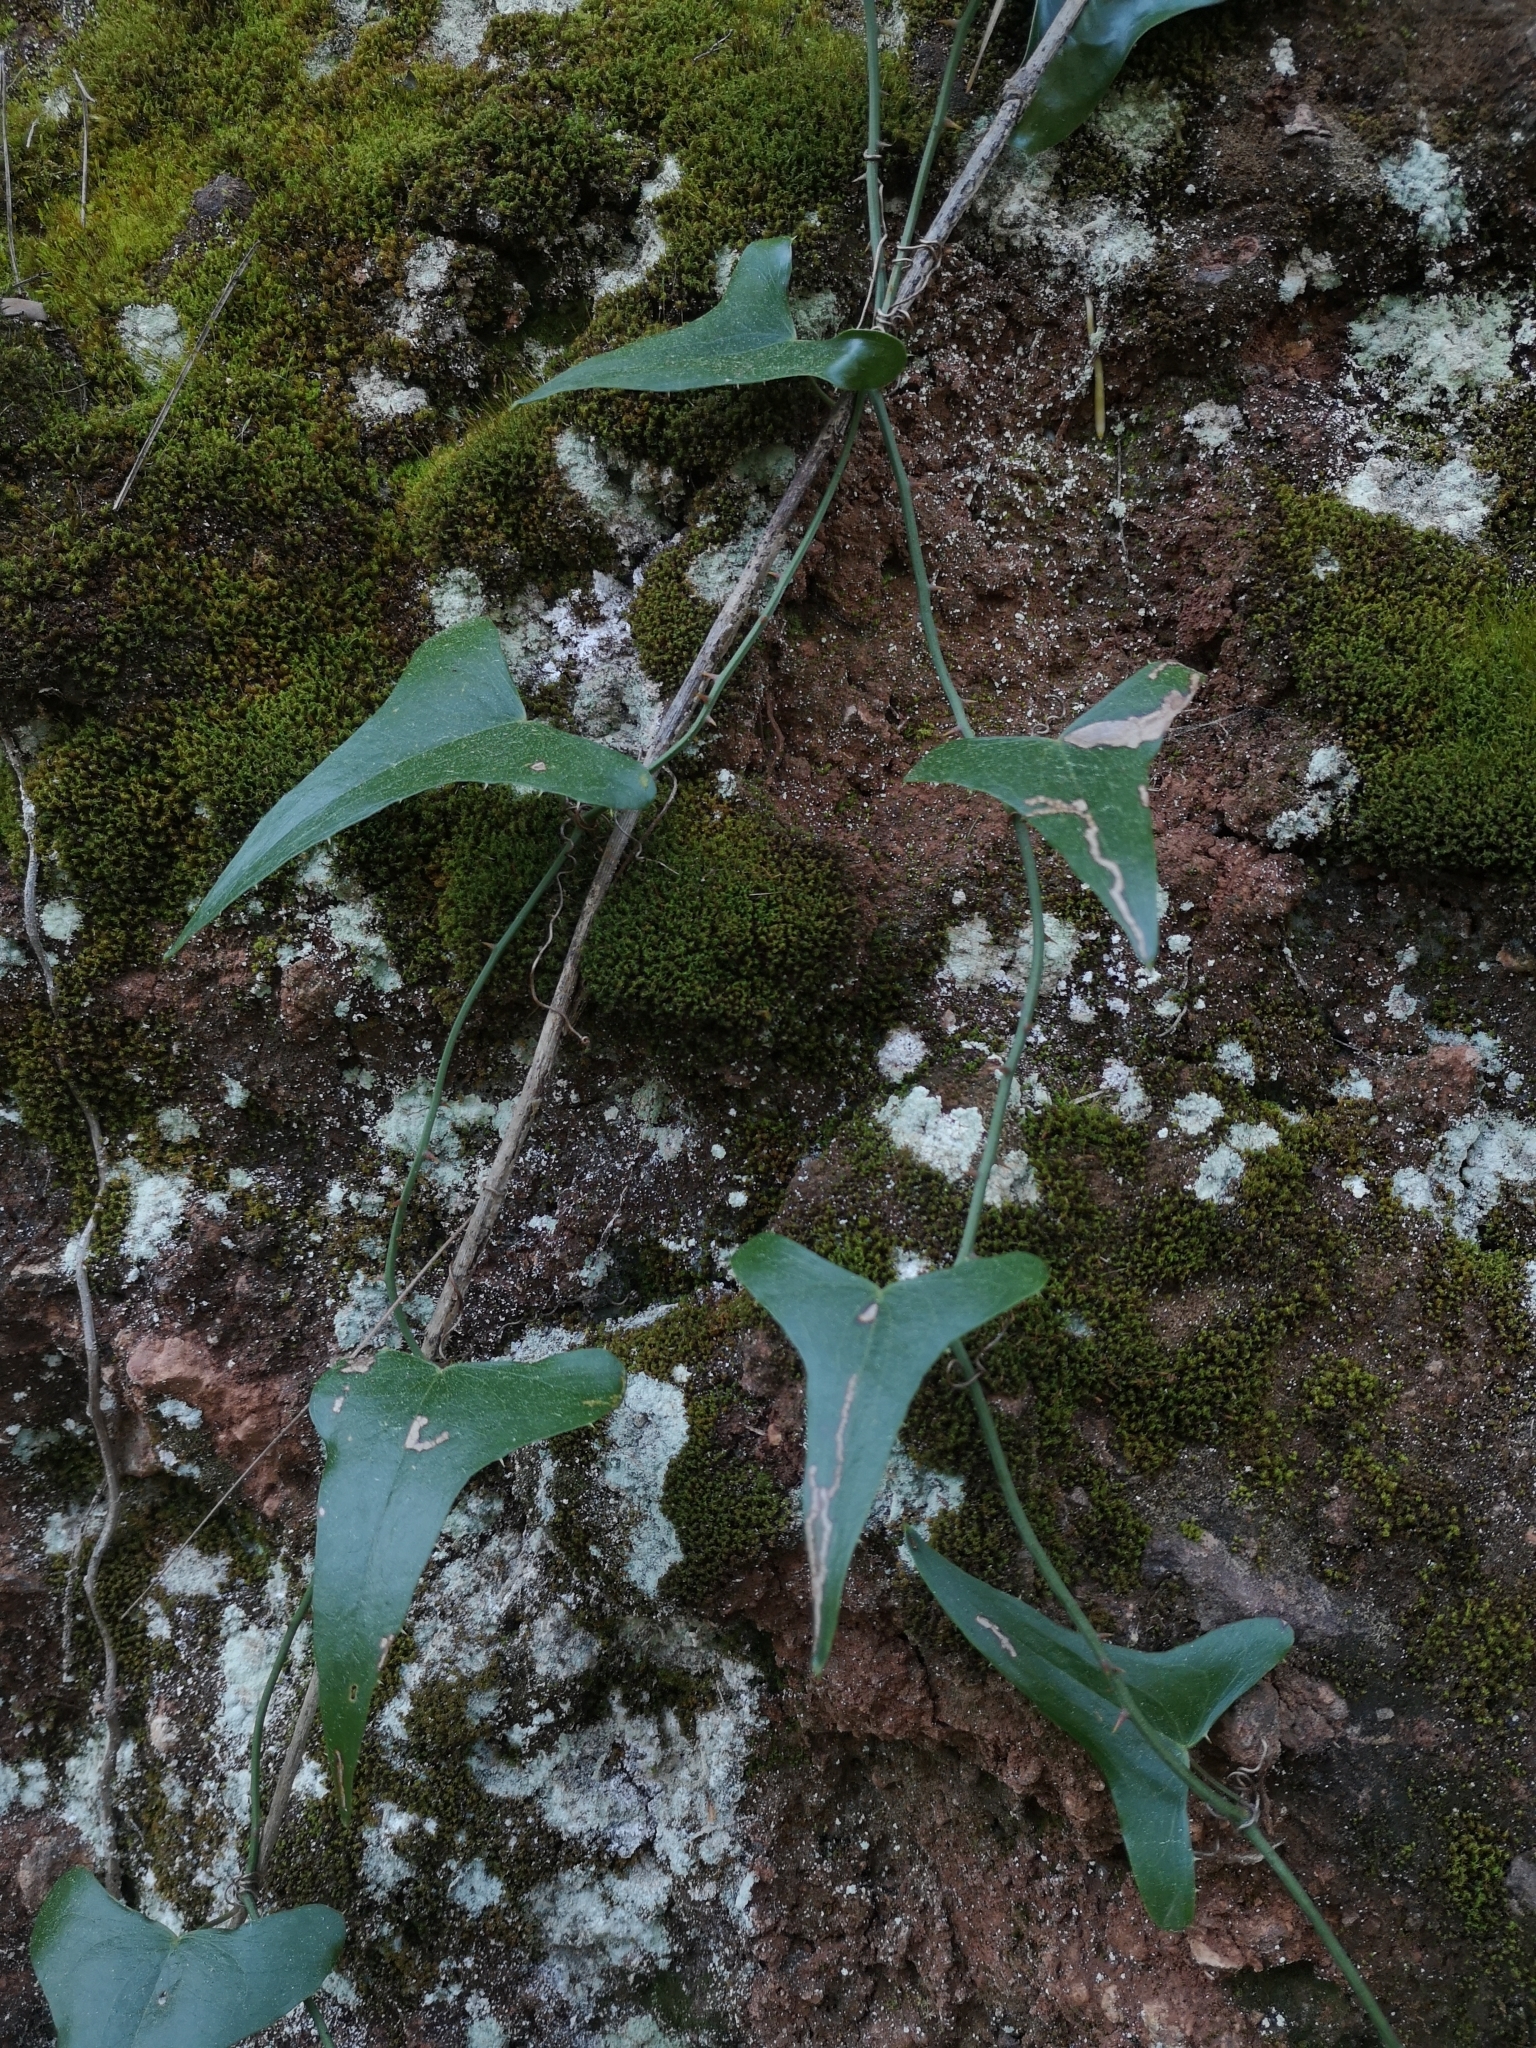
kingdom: Plantae
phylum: Tracheophyta
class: Liliopsida
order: Liliales
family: Smilacaceae
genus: Smilax
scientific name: Smilax aspera
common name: Common smilax
